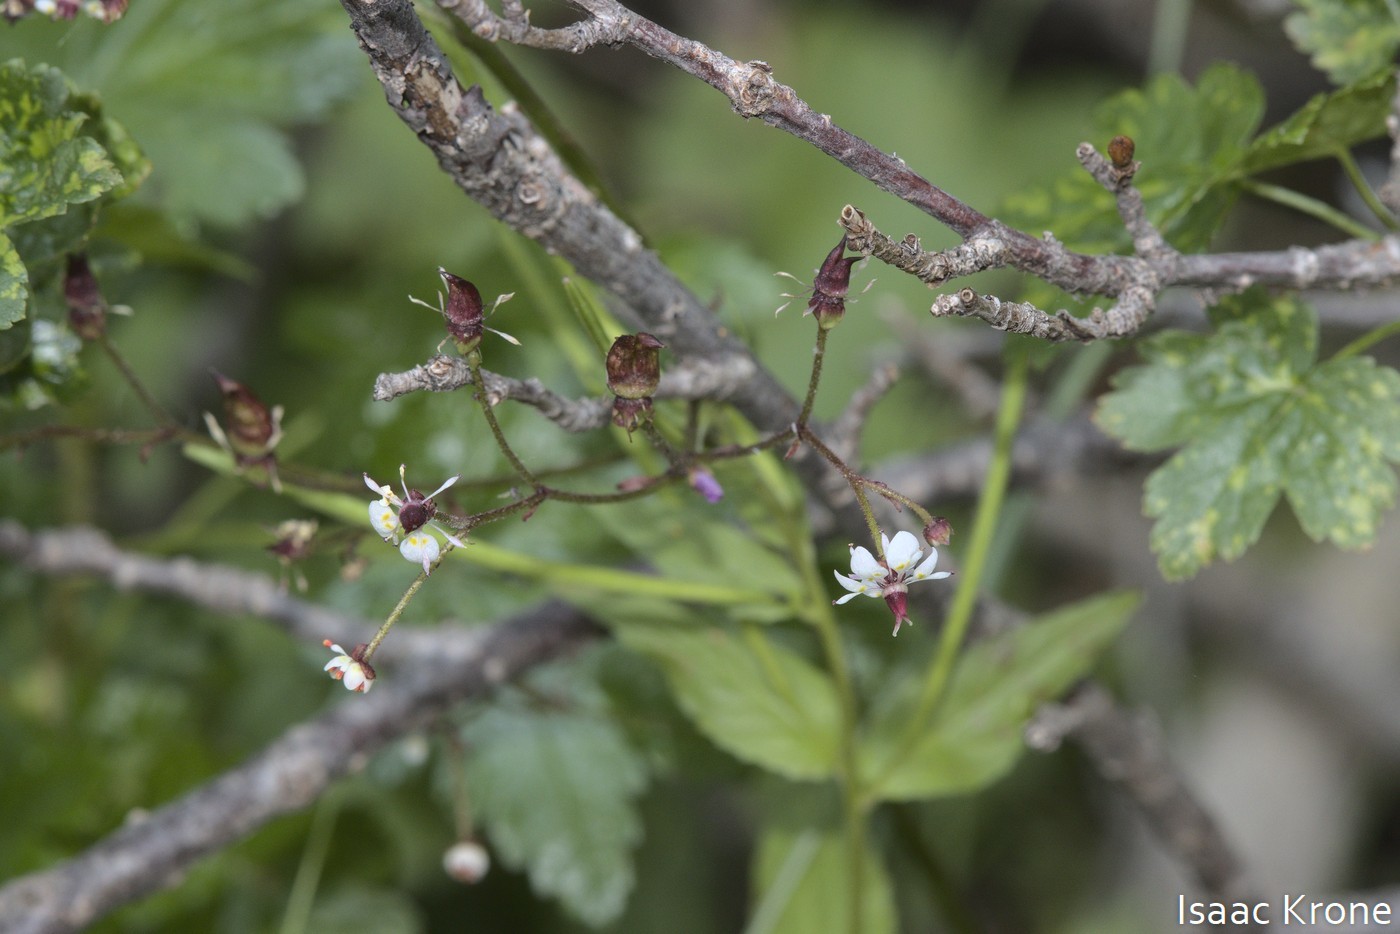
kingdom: Plantae
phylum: Tracheophyta
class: Magnoliopsida
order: Saxifragales
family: Saxifragaceae
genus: Micranthes
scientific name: Micranthes odontoloma
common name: Brook saxifrage
